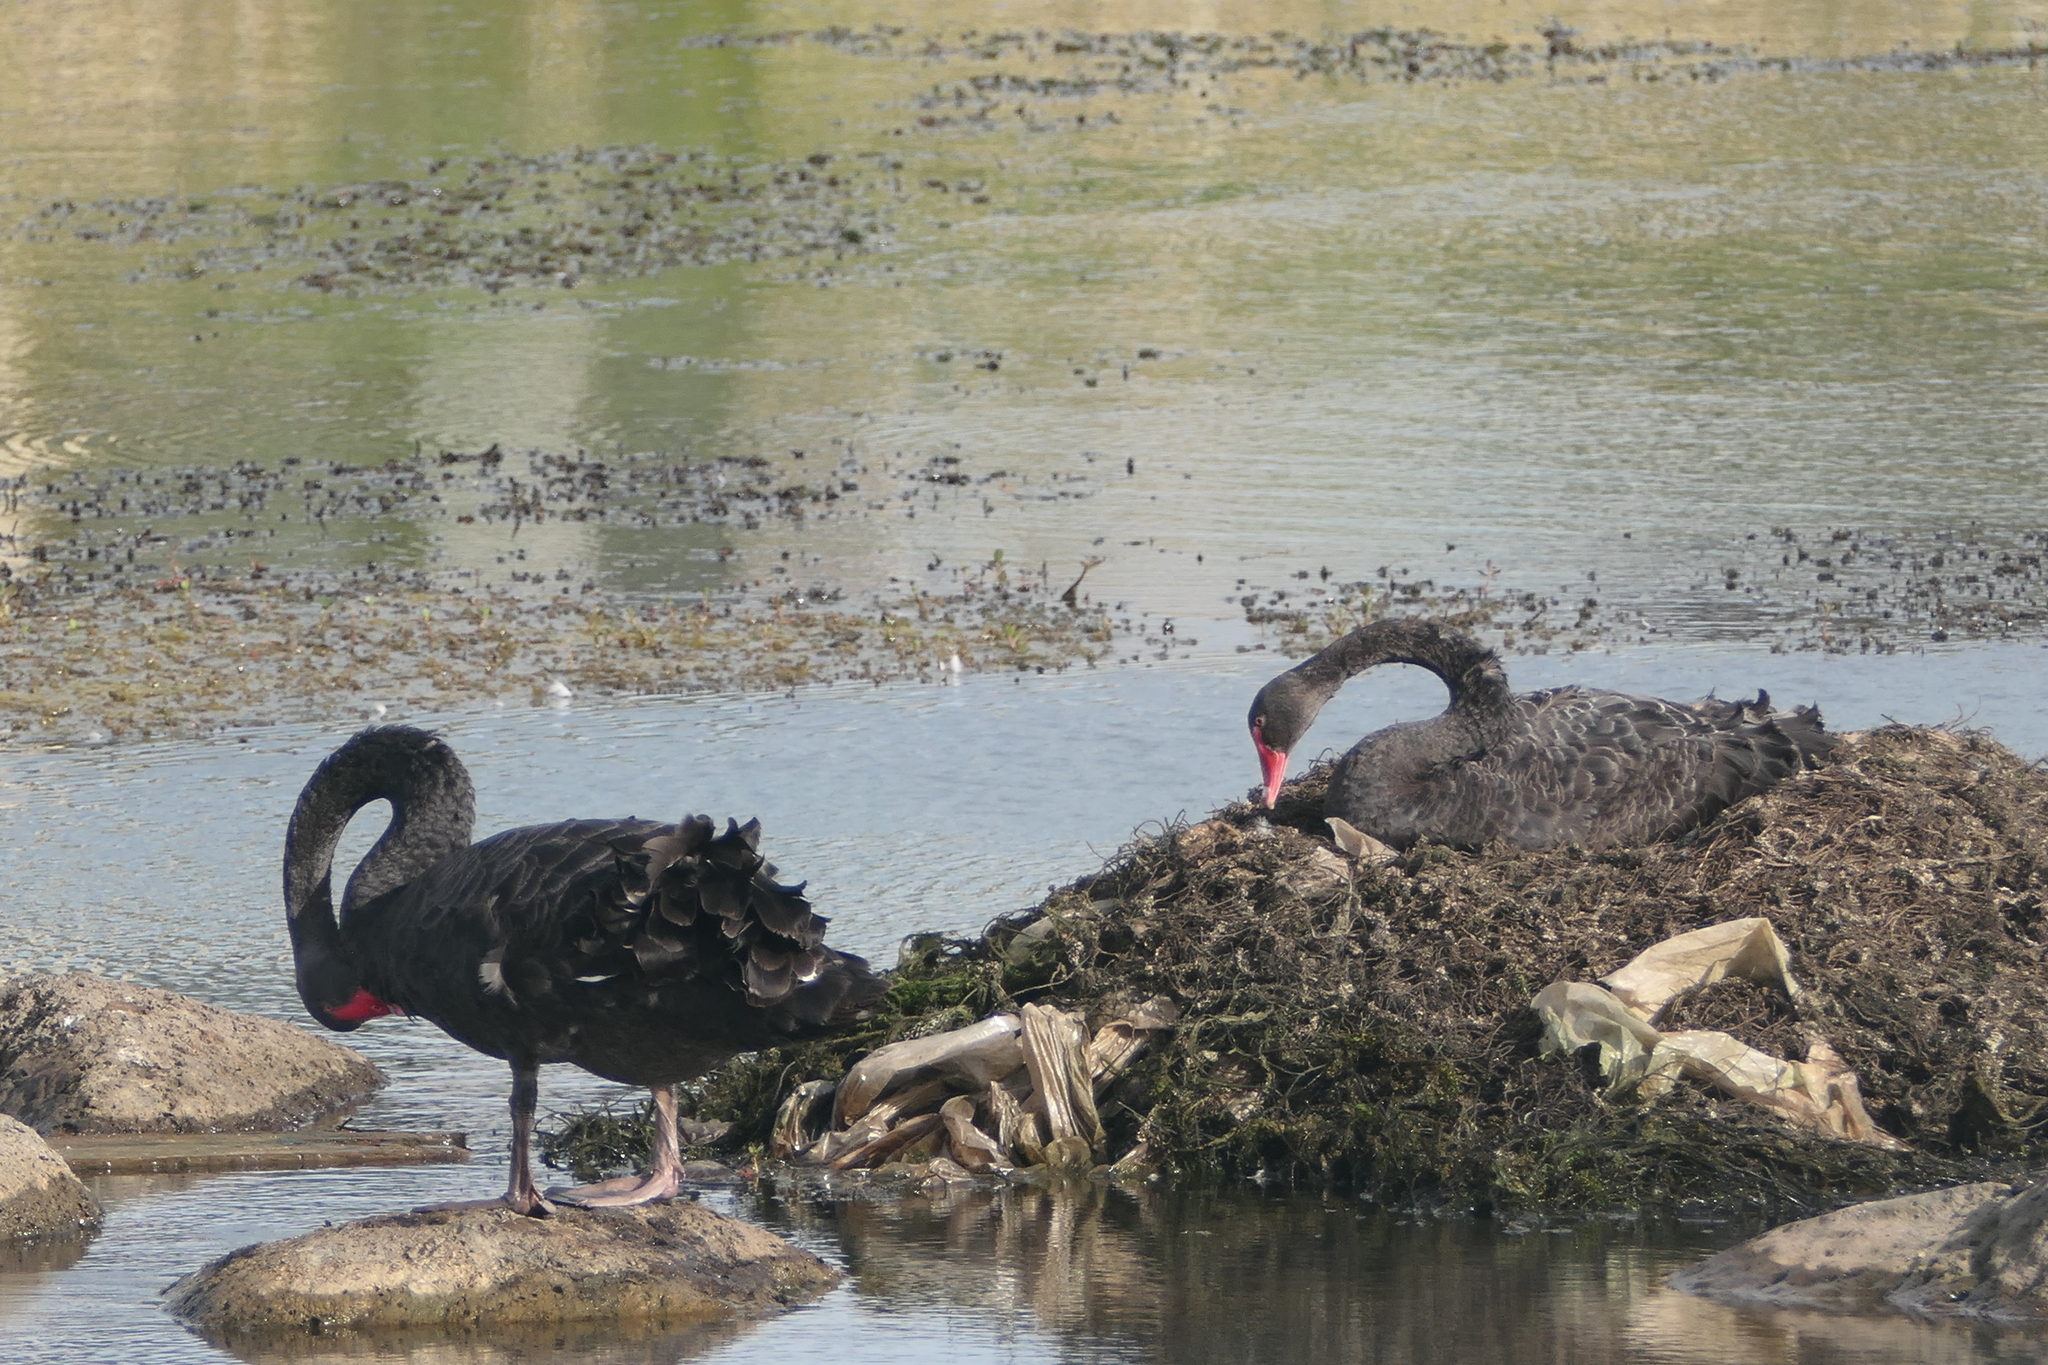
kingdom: Animalia
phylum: Chordata
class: Aves
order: Anseriformes
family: Anatidae
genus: Cygnus
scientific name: Cygnus atratus
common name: Black swan
